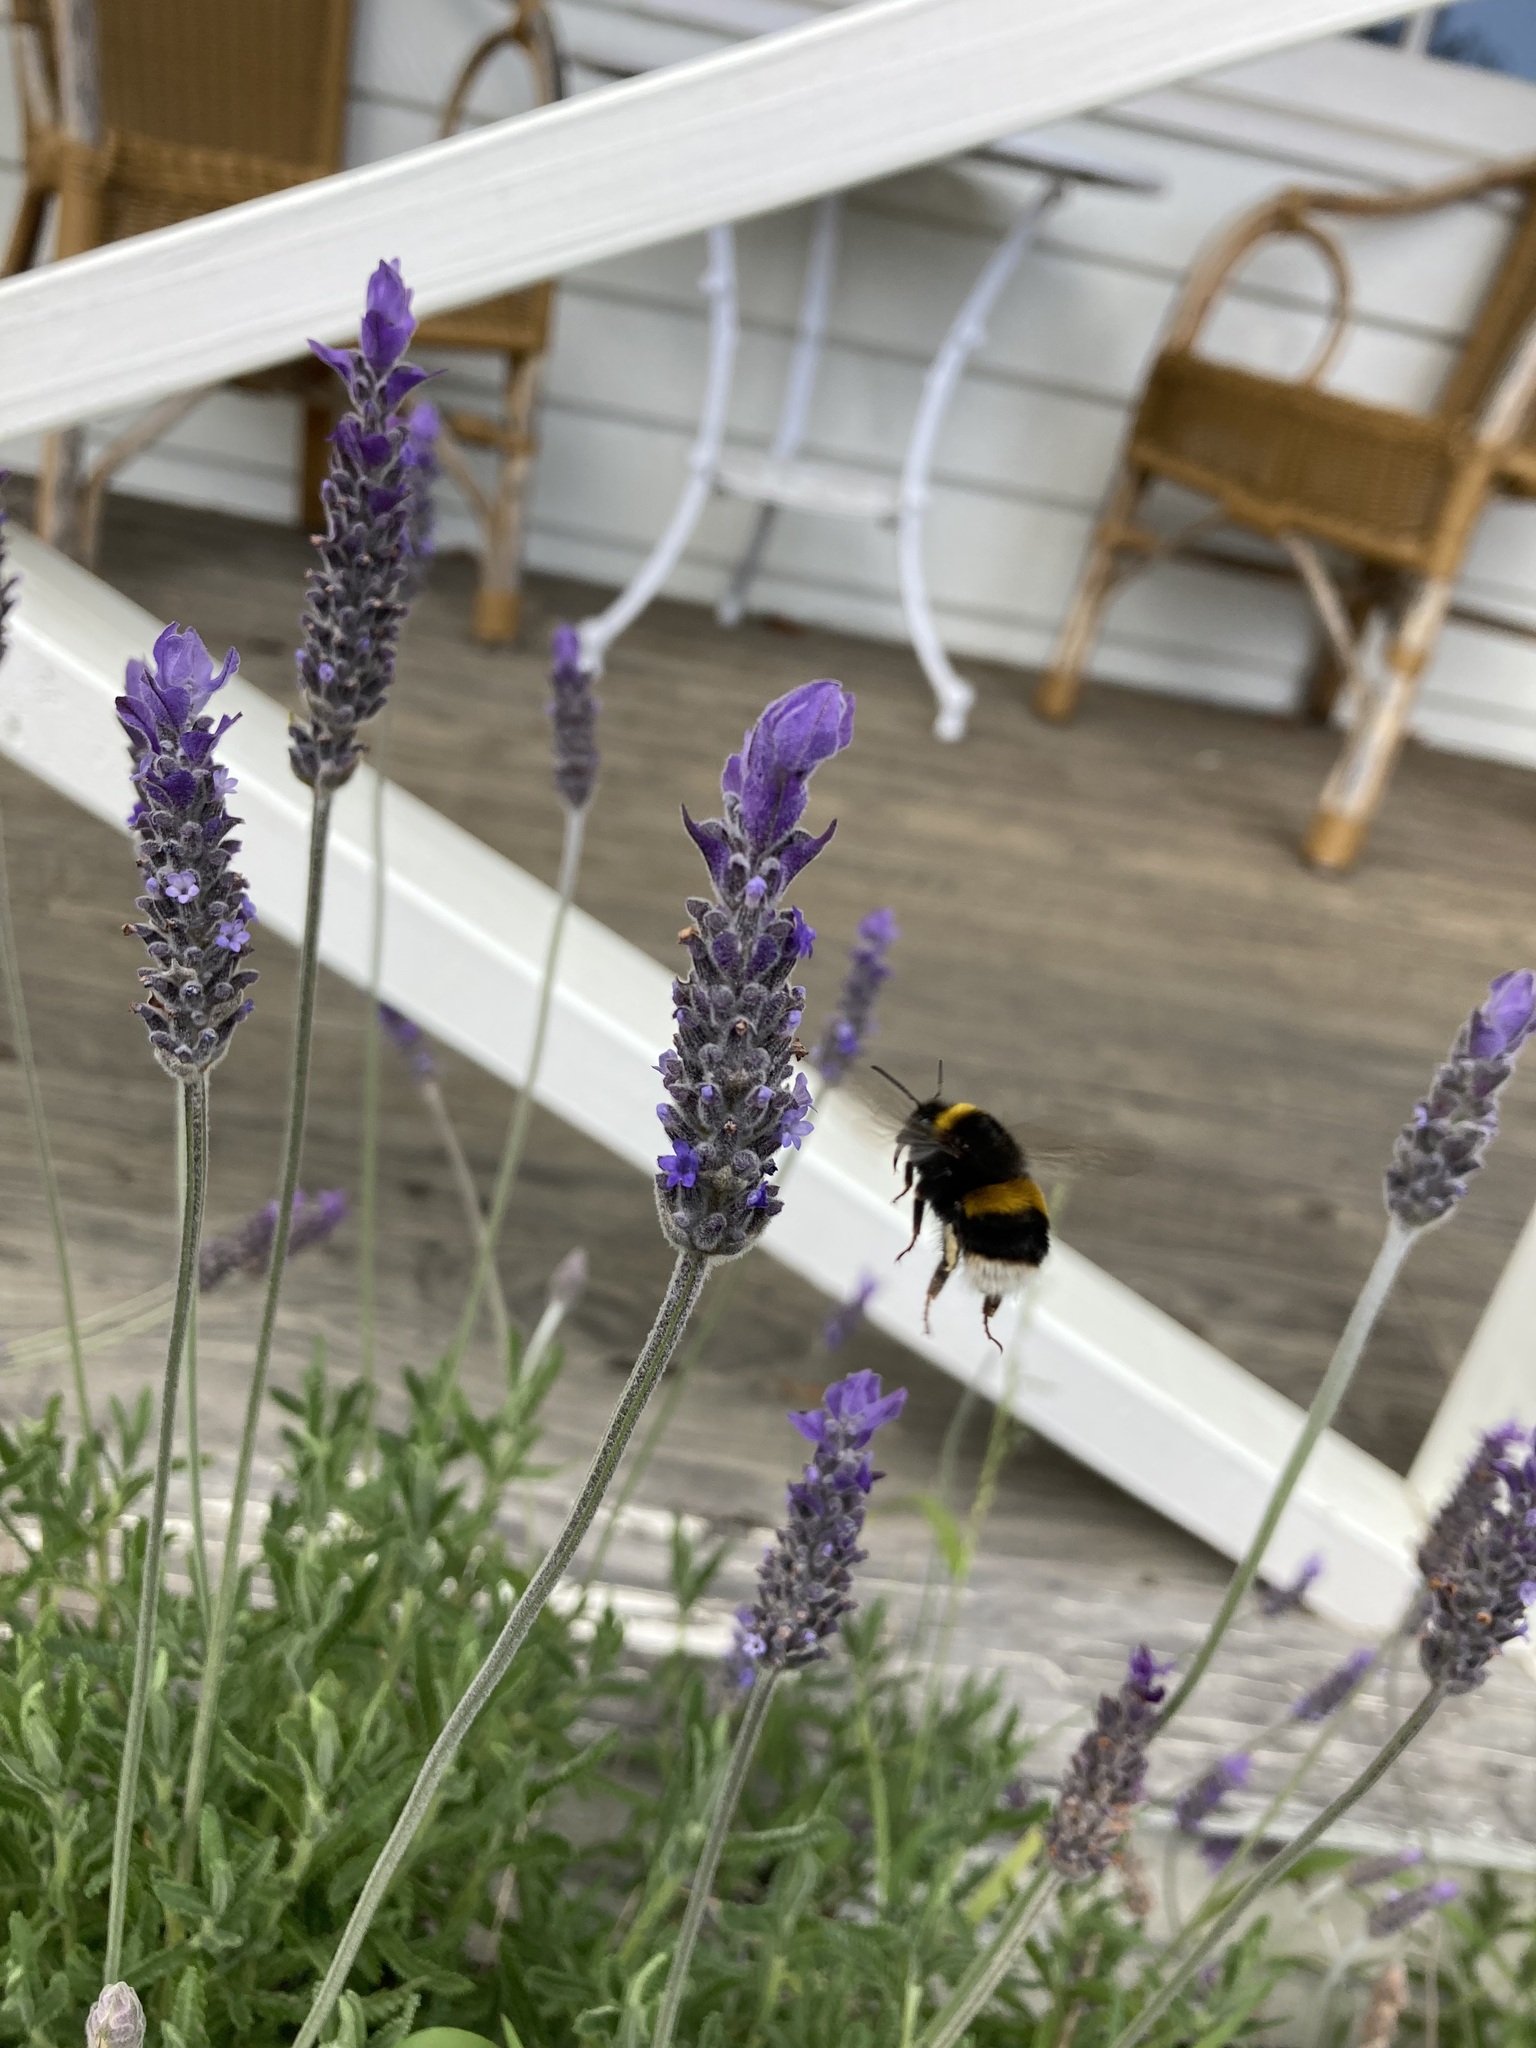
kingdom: Animalia
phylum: Arthropoda
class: Insecta
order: Hymenoptera
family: Apidae
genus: Bombus
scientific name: Bombus terrestris
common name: Buff-tailed bumblebee
